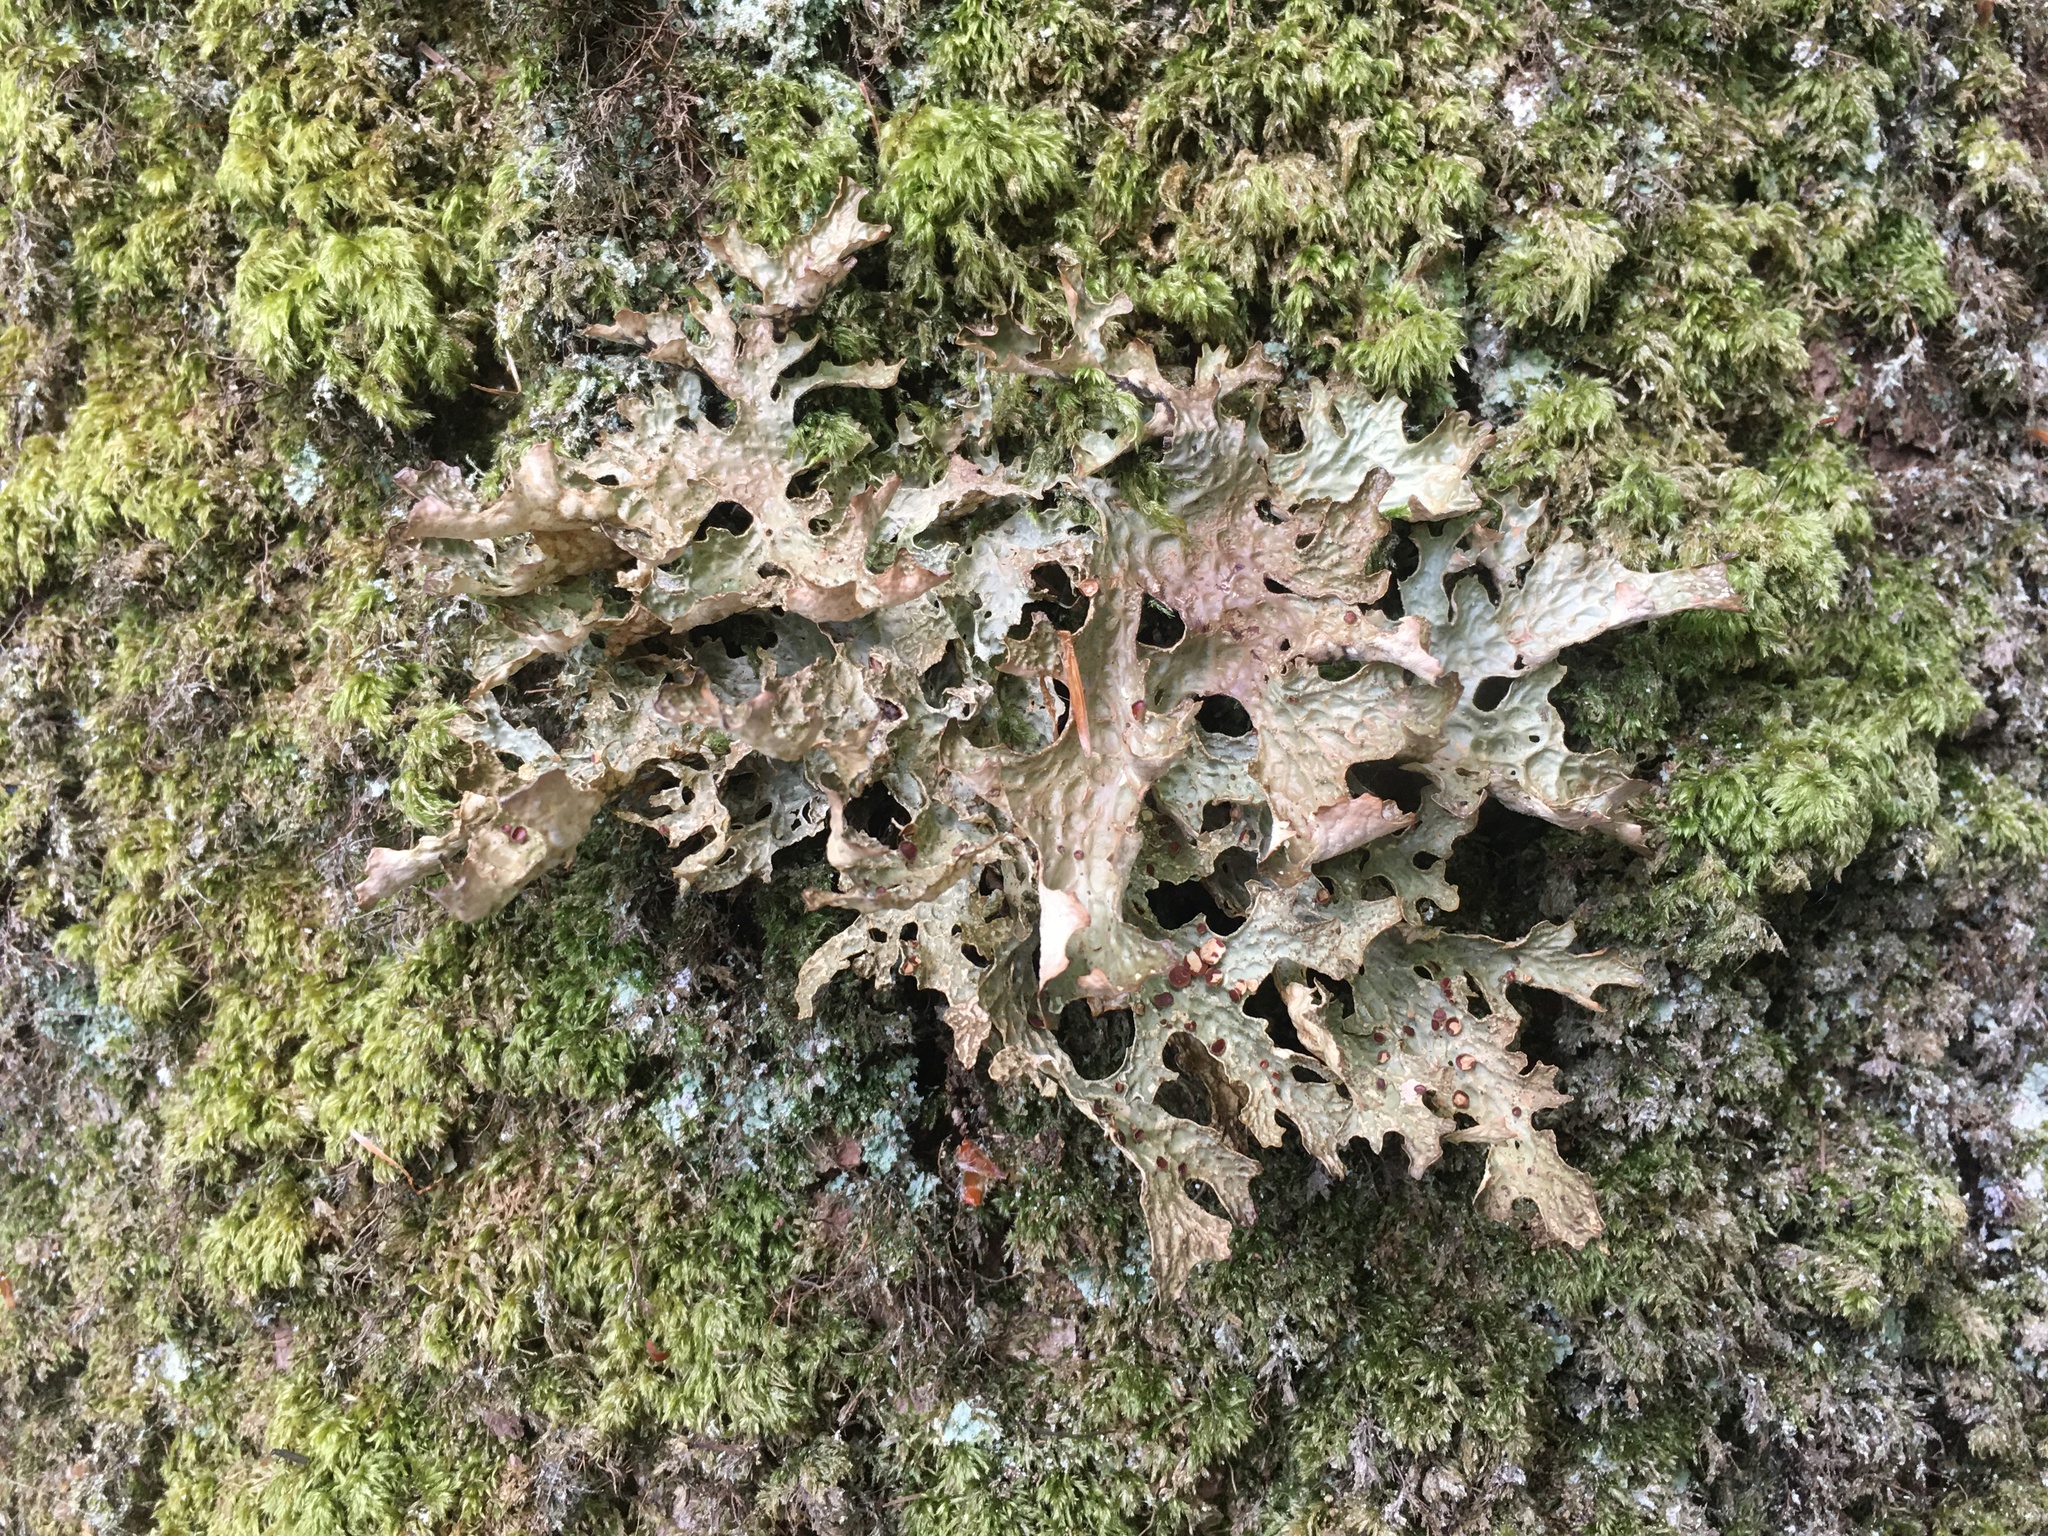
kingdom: Fungi
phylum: Ascomycota
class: Lecanoromycetes
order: Peltigerales
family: Lobariaceae
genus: Lobaria
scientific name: Lobaria pulmonaria
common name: Lungwort
